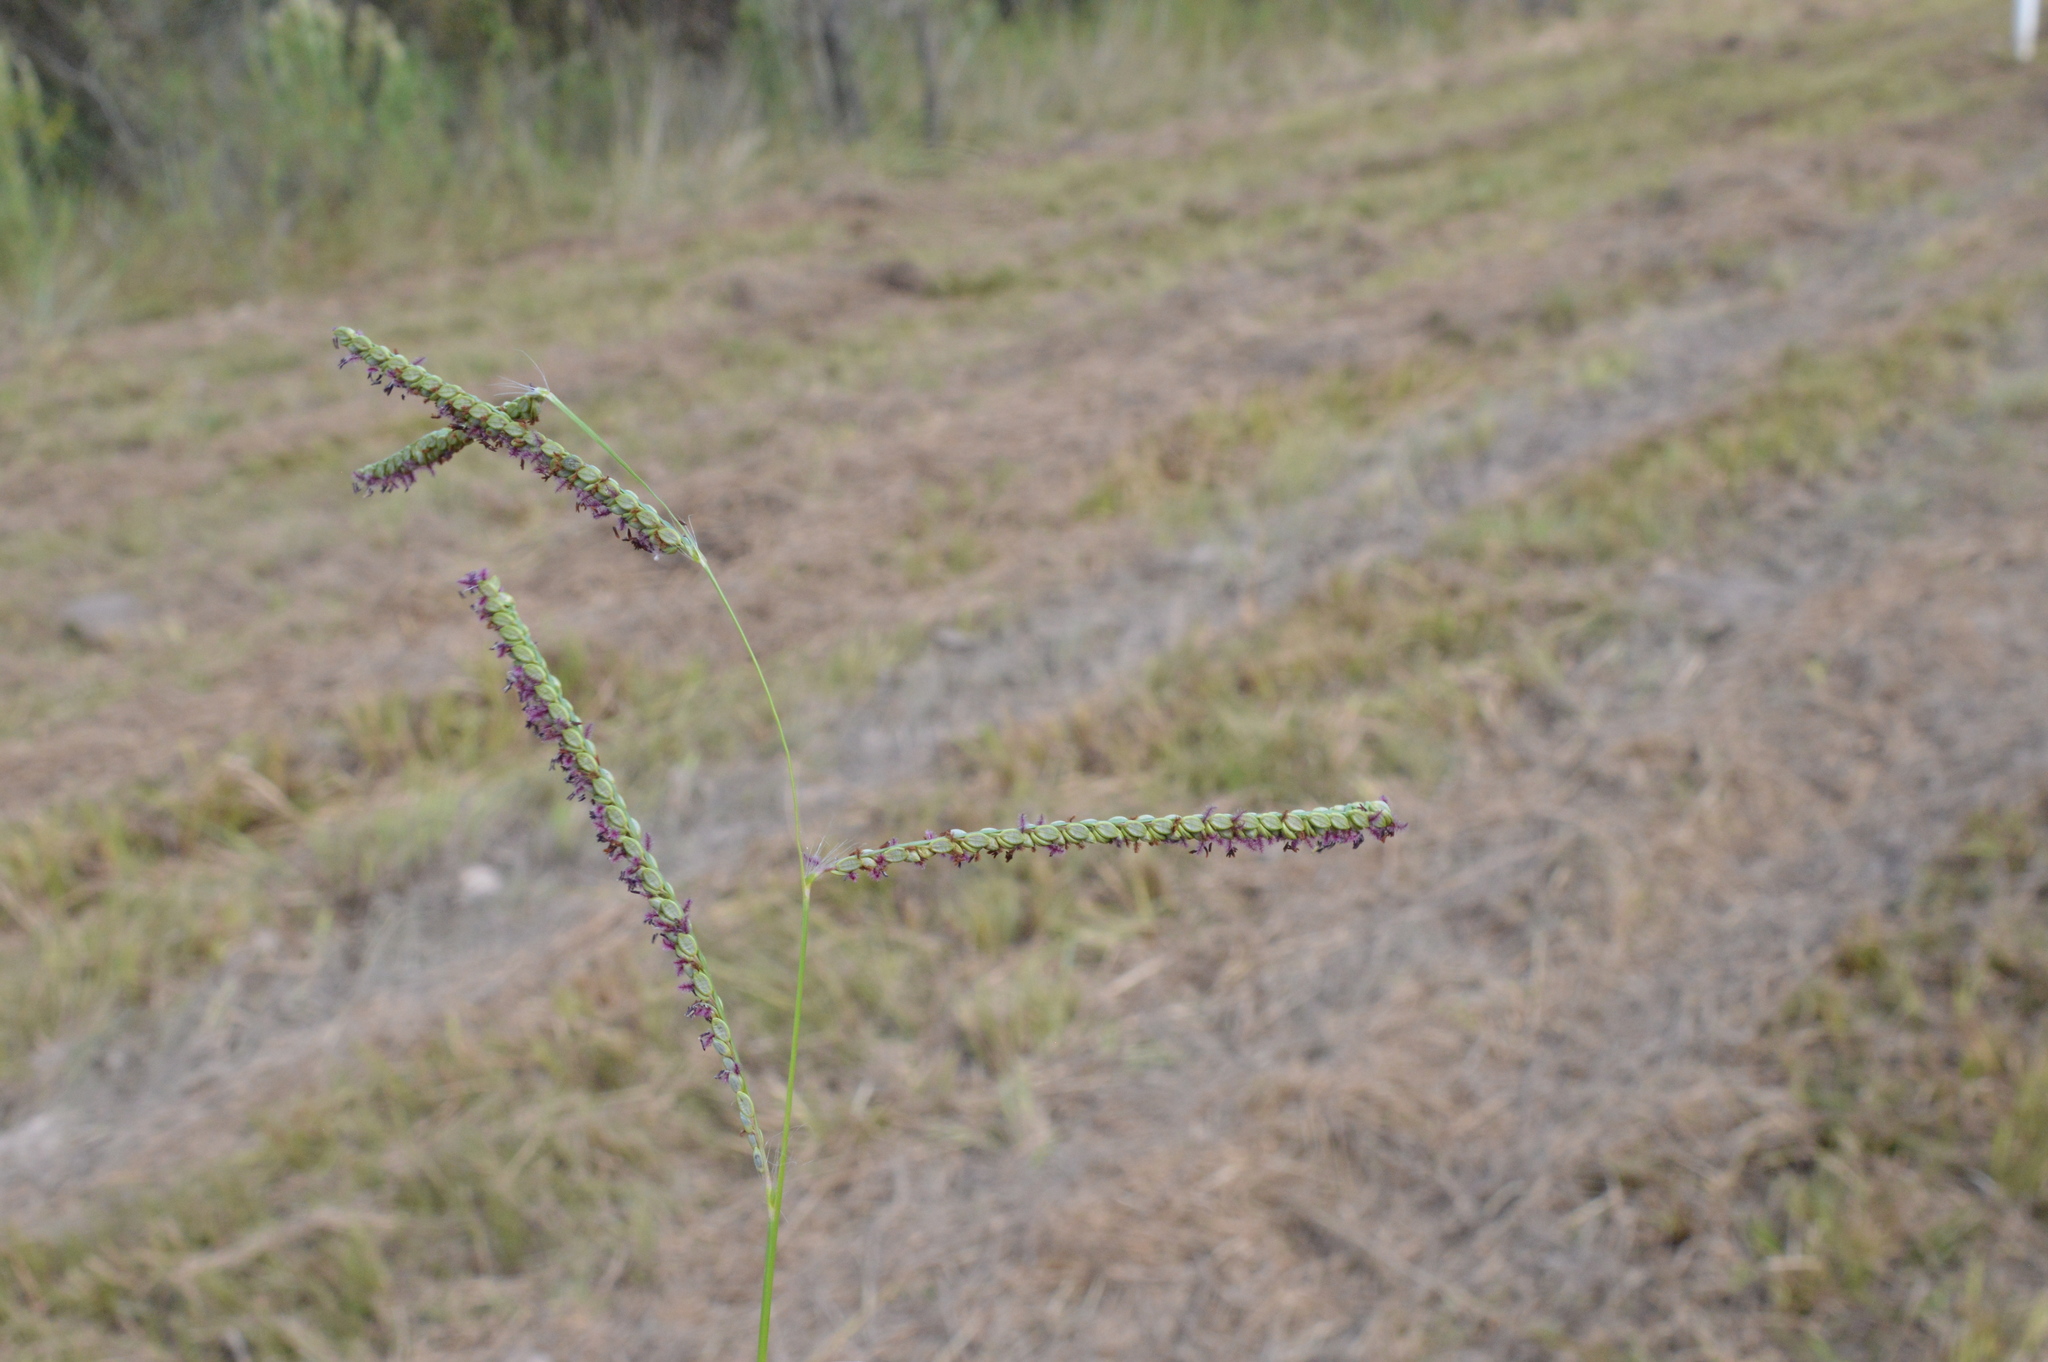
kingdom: Plantae
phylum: Tracheophyta
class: Liliopsida
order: Poales
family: Poaceae
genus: Paspalum
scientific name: Paspalum plicatulum
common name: Top paspalum
